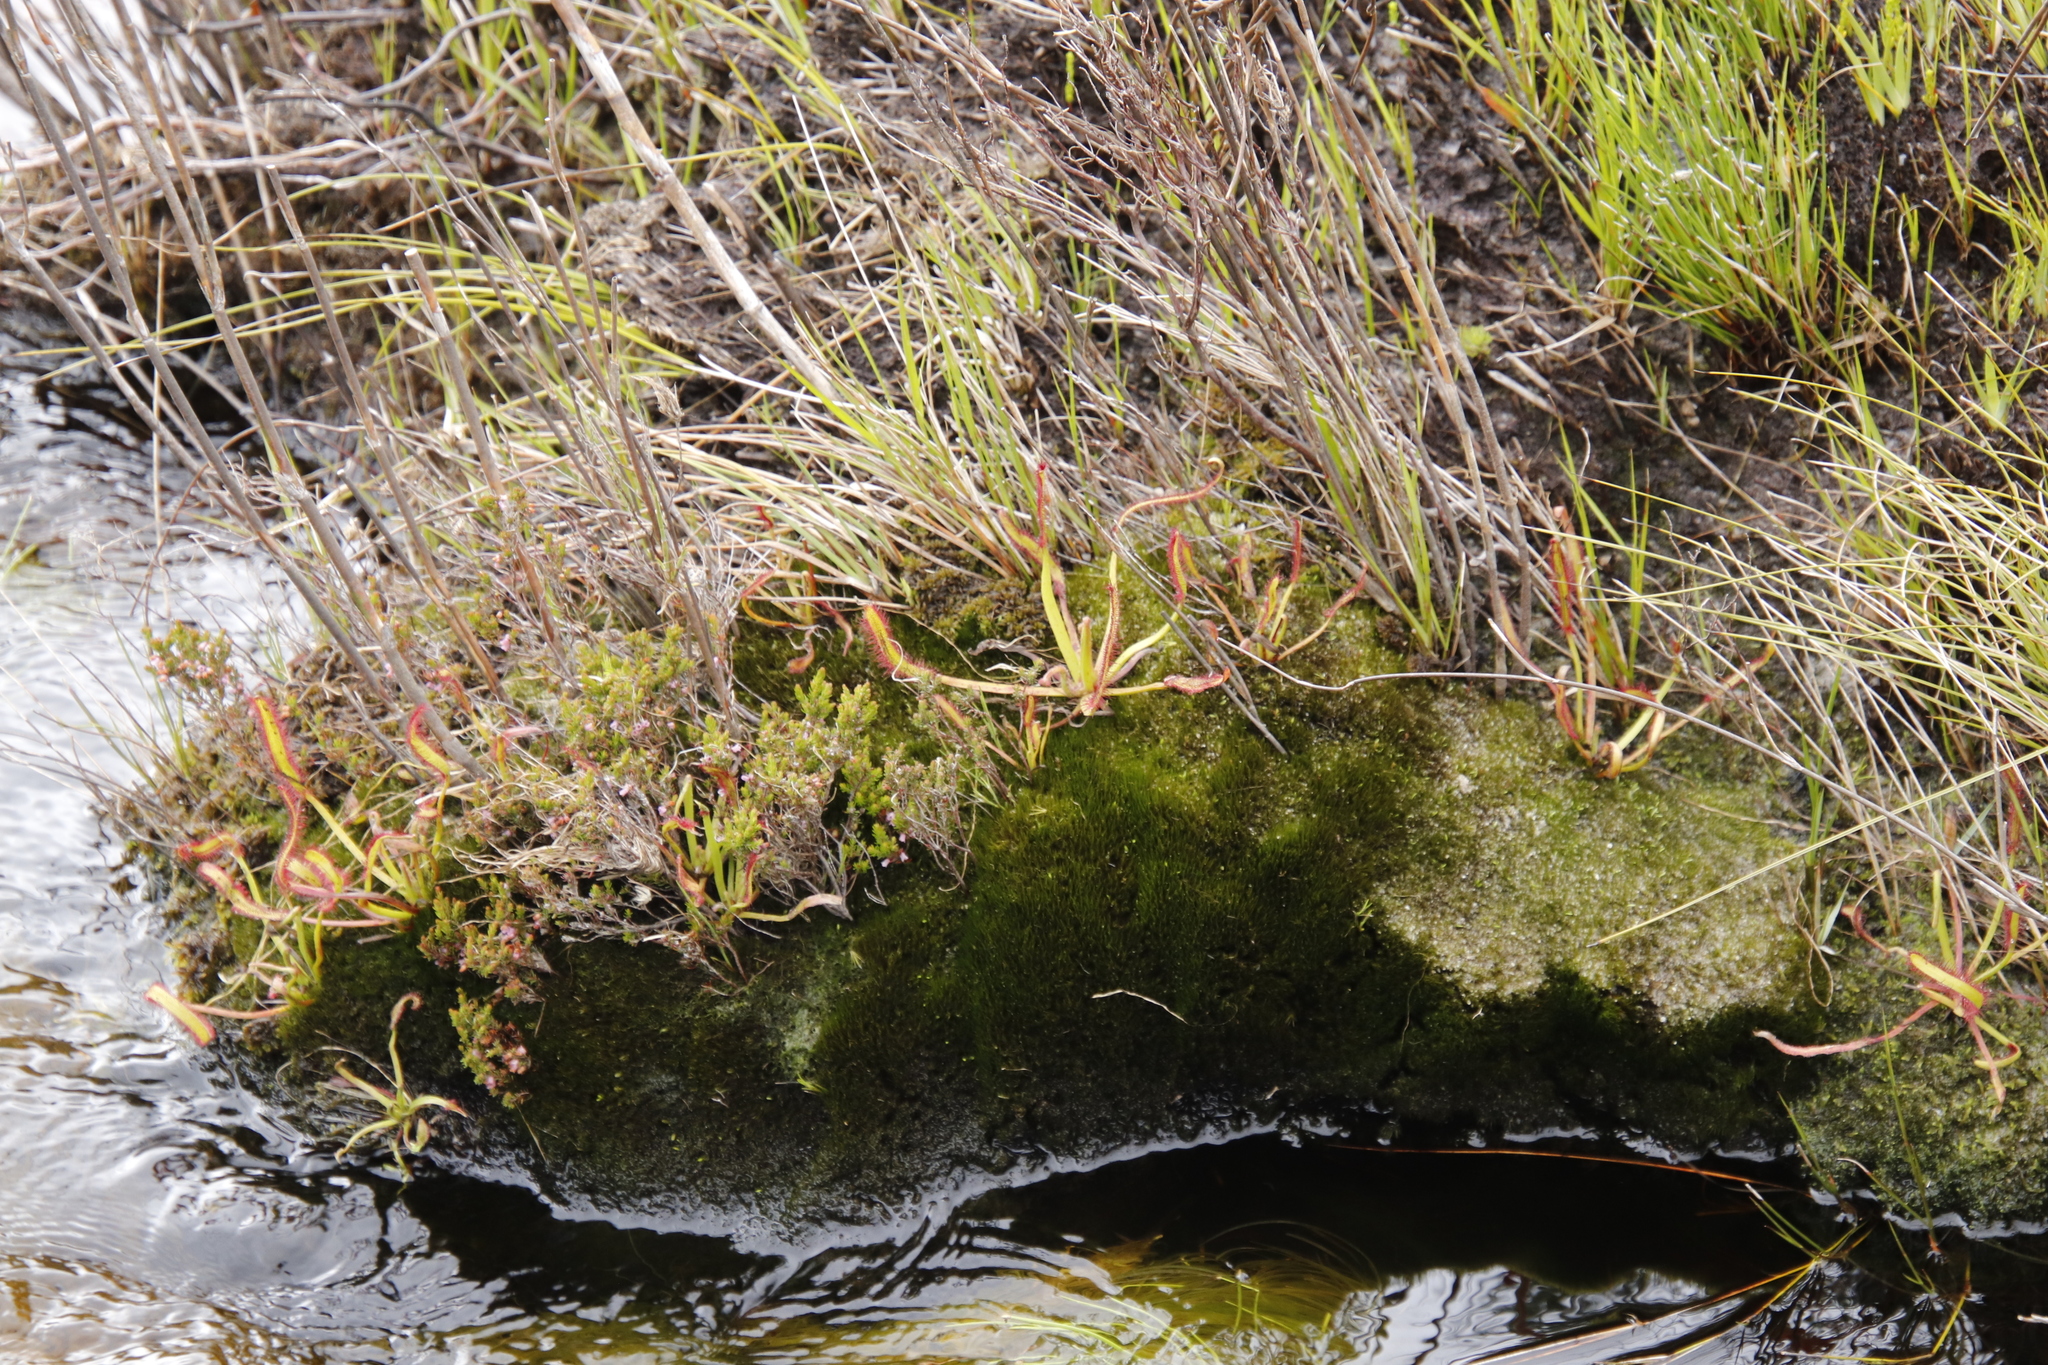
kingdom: Plantae
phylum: Tracheophyta
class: Magnoliopsida
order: Caryophyllales
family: Droseraceae
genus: Drosera
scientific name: Drosera capensis
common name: Cape sundew
